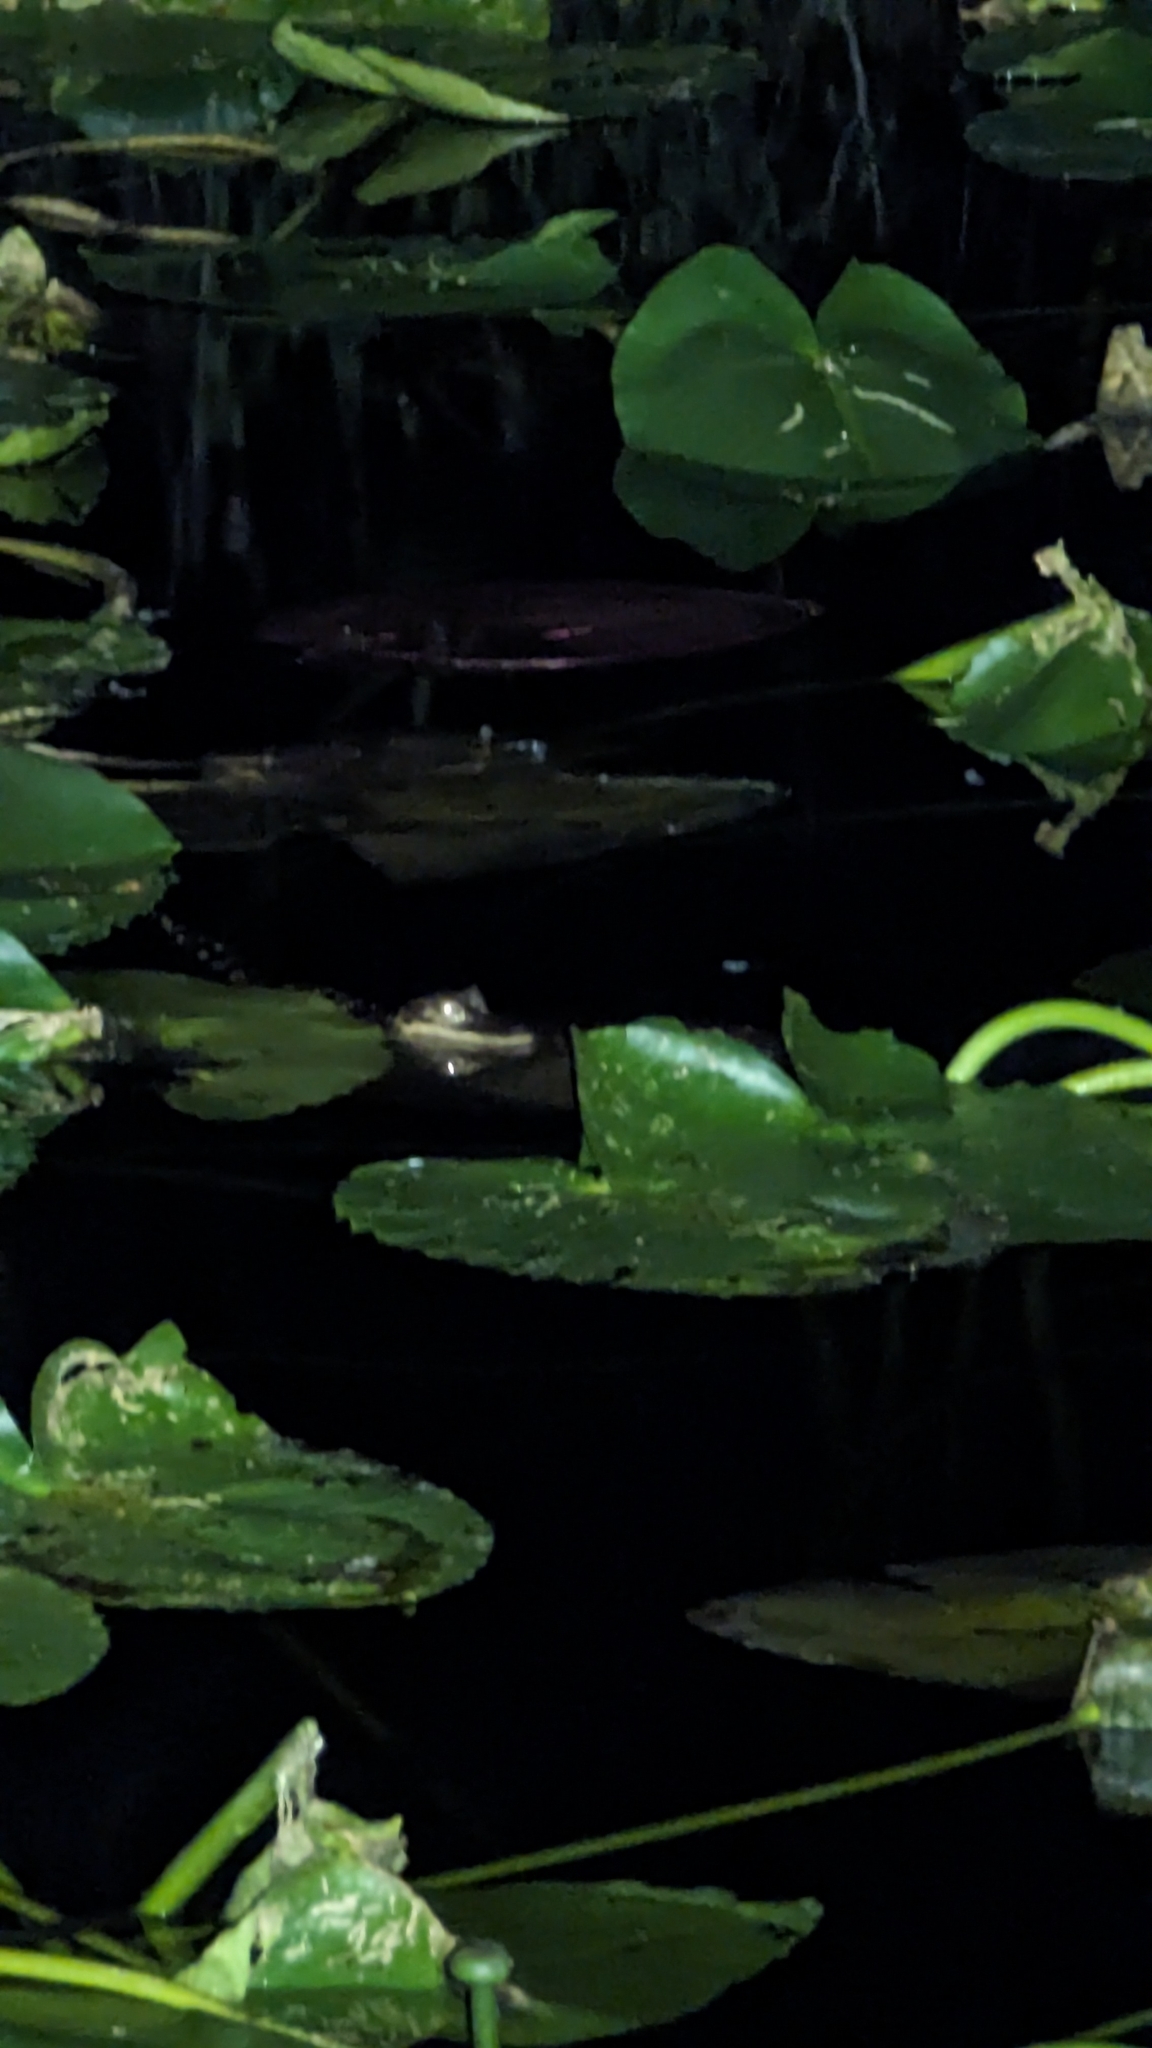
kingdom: Animalia
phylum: Chordata
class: Crocodylia
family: Alligatoridae
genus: Alligator
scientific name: Alligator mississippiensis
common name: American alligator
